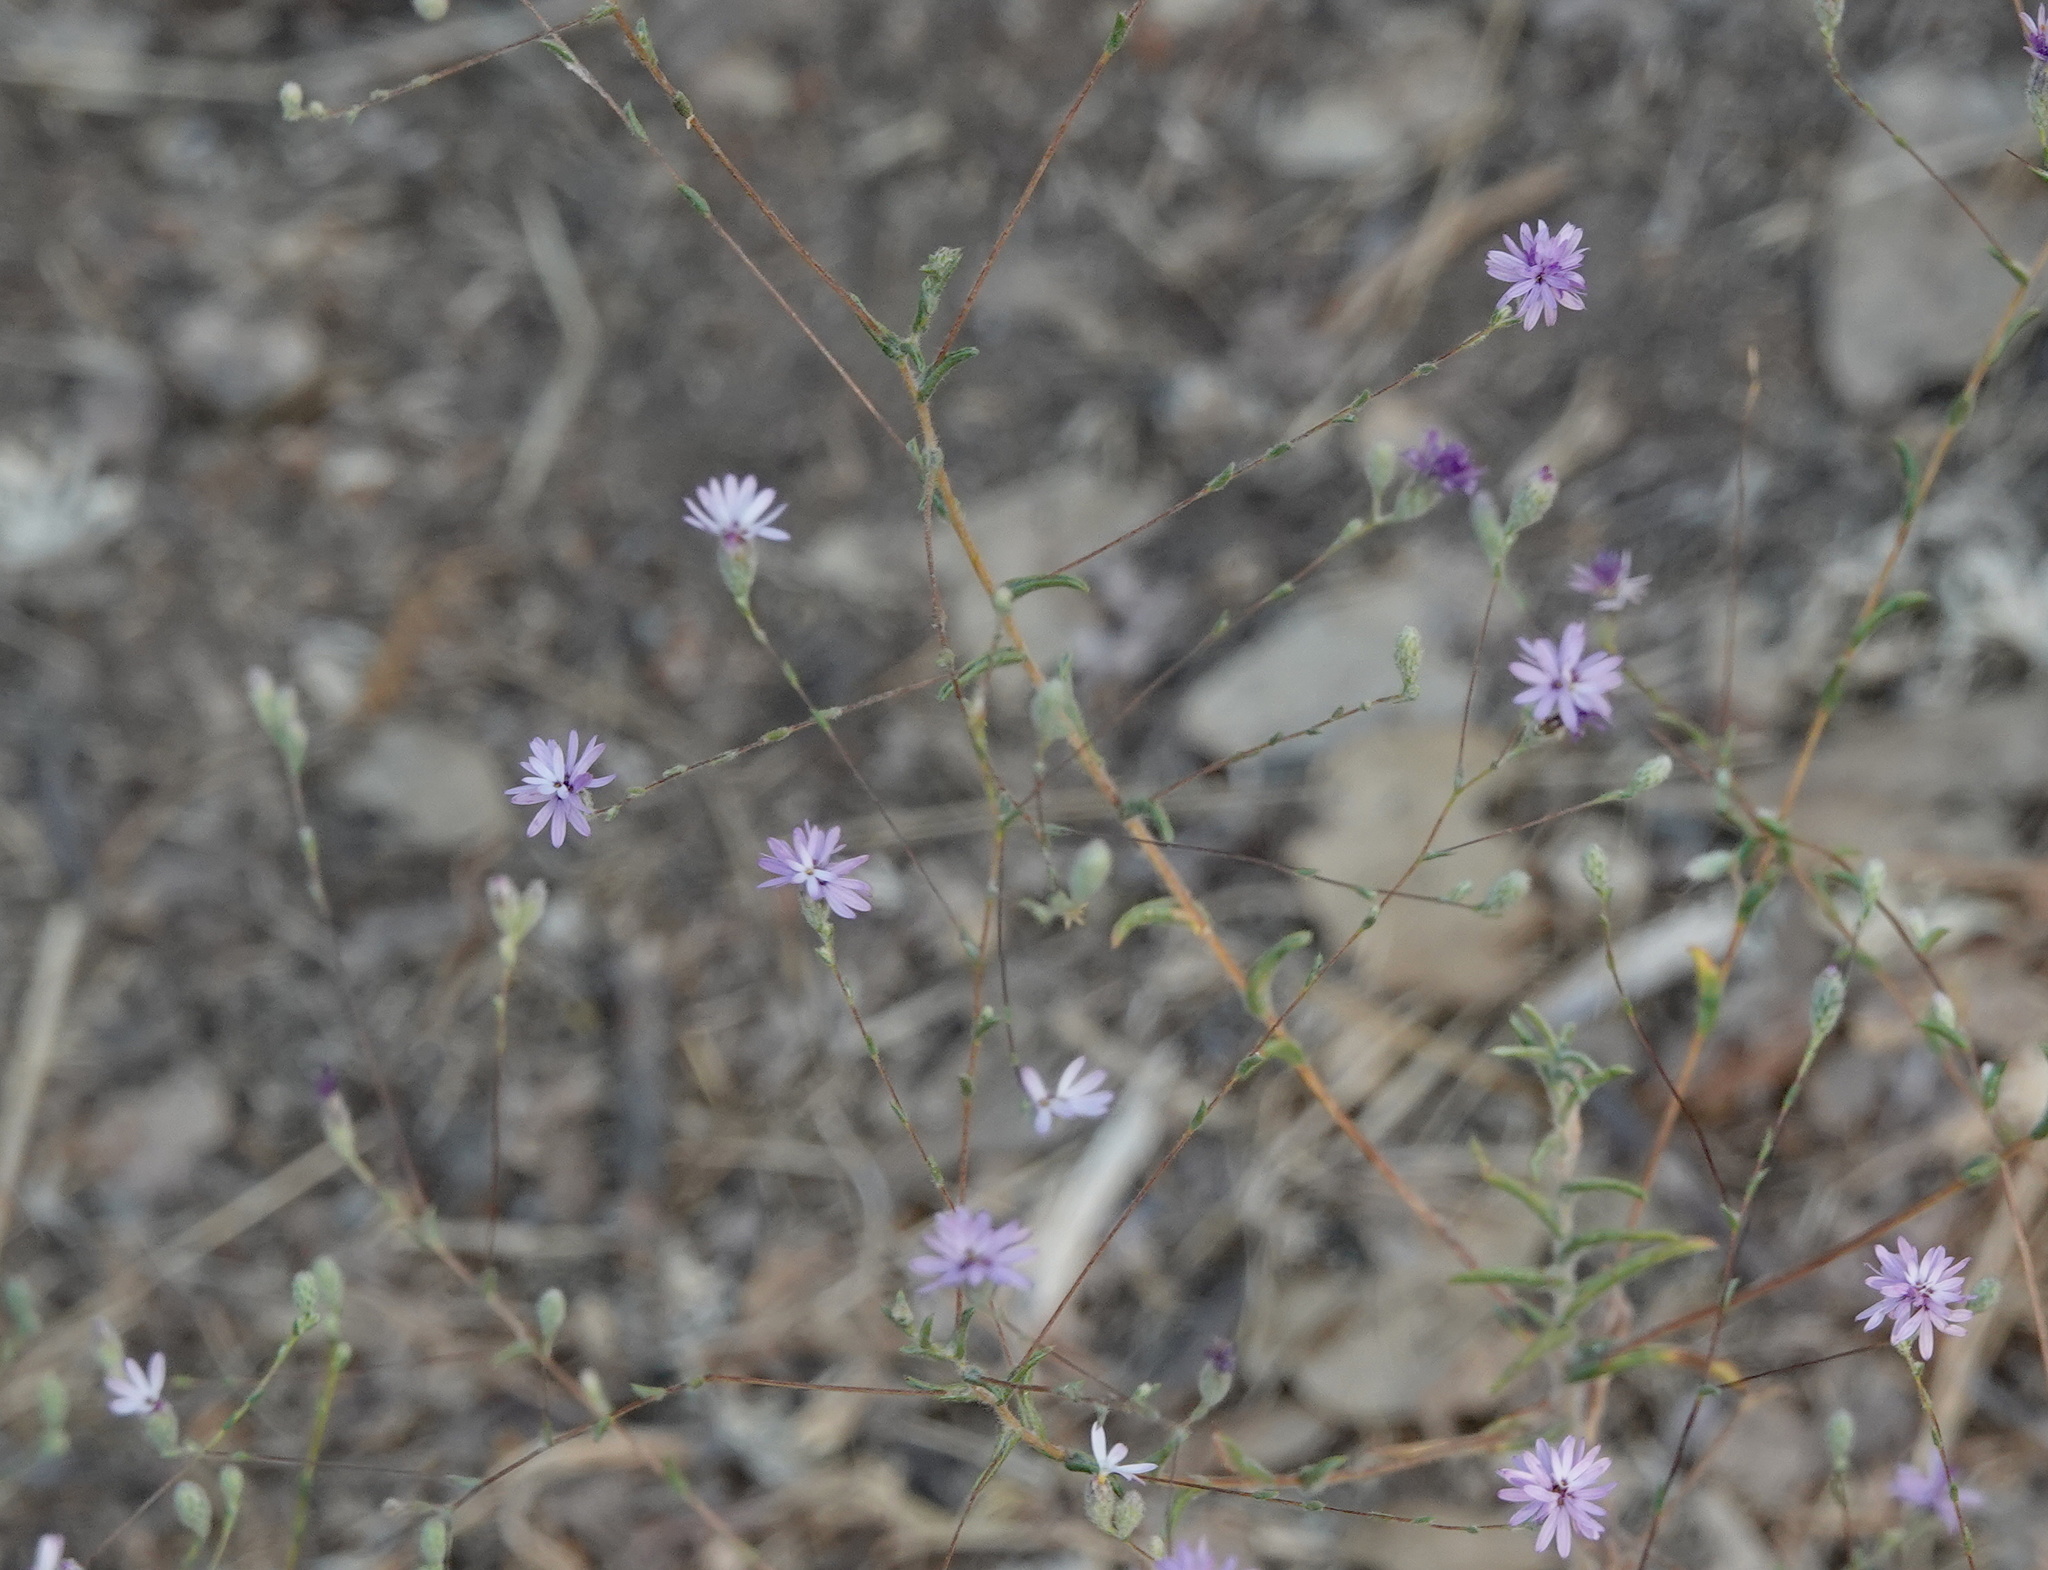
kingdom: Plantae
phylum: Tracheophyta
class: Magnoliopsida
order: Asterales
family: Asteraceae
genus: Lessingia
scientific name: Lessingia leptoclada
